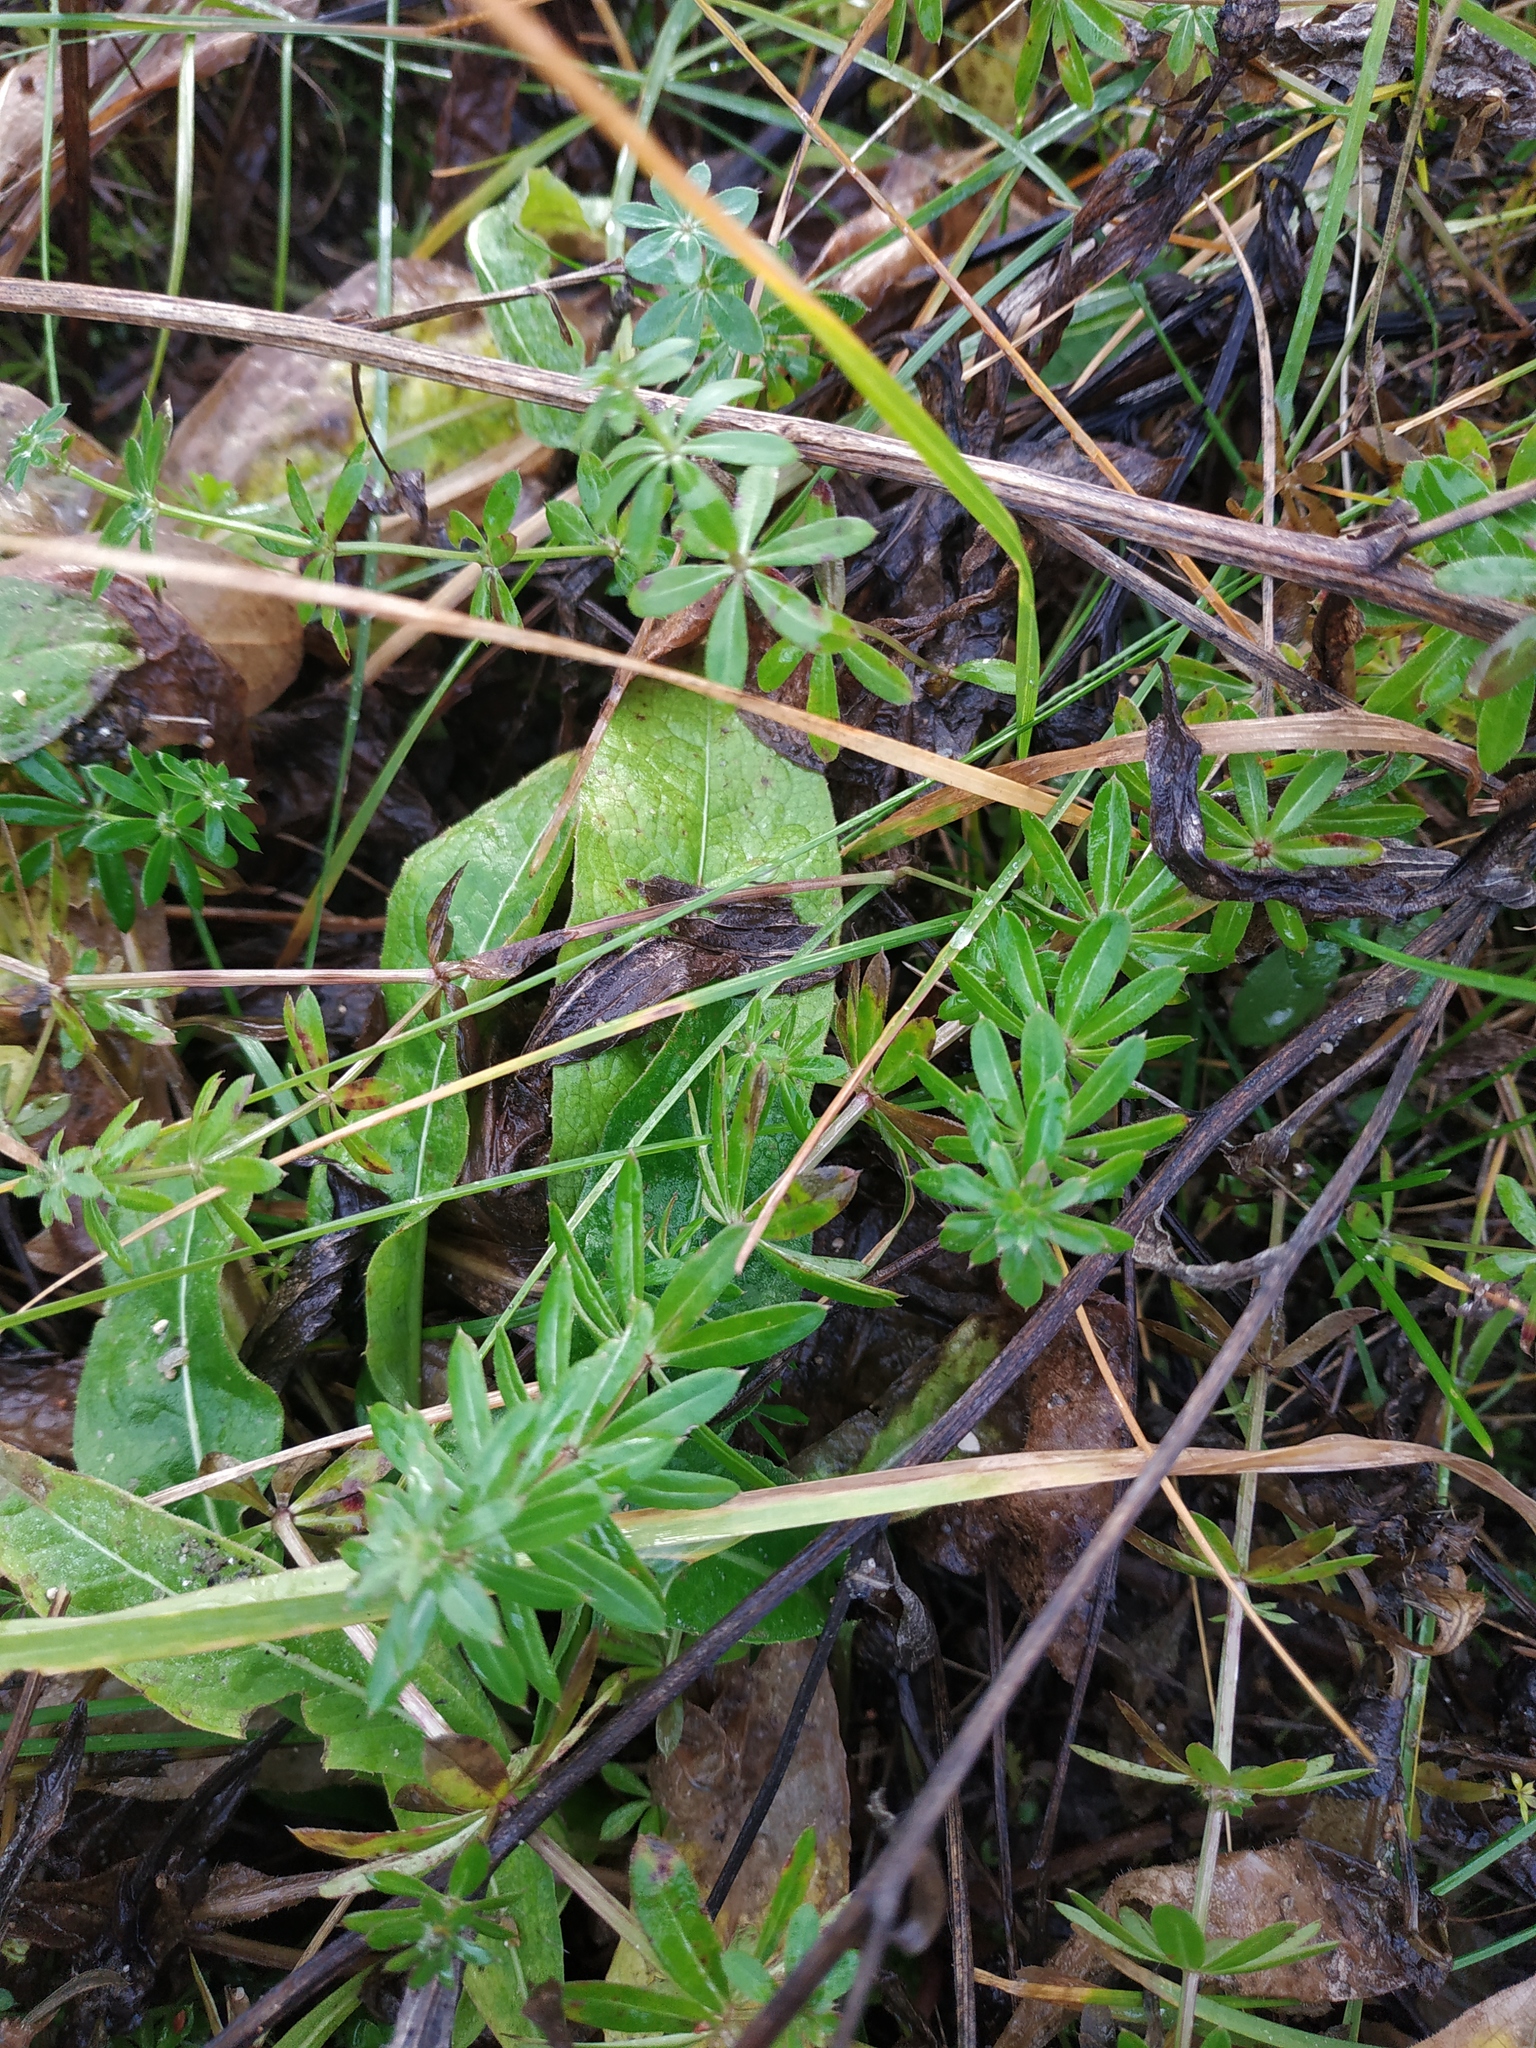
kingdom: Plantae
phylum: Tracheophyta
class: Magnoliopsida
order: Gentianales
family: Rubiaceae
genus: Galium
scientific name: Galium mollugo
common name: Hedge bedstraw
